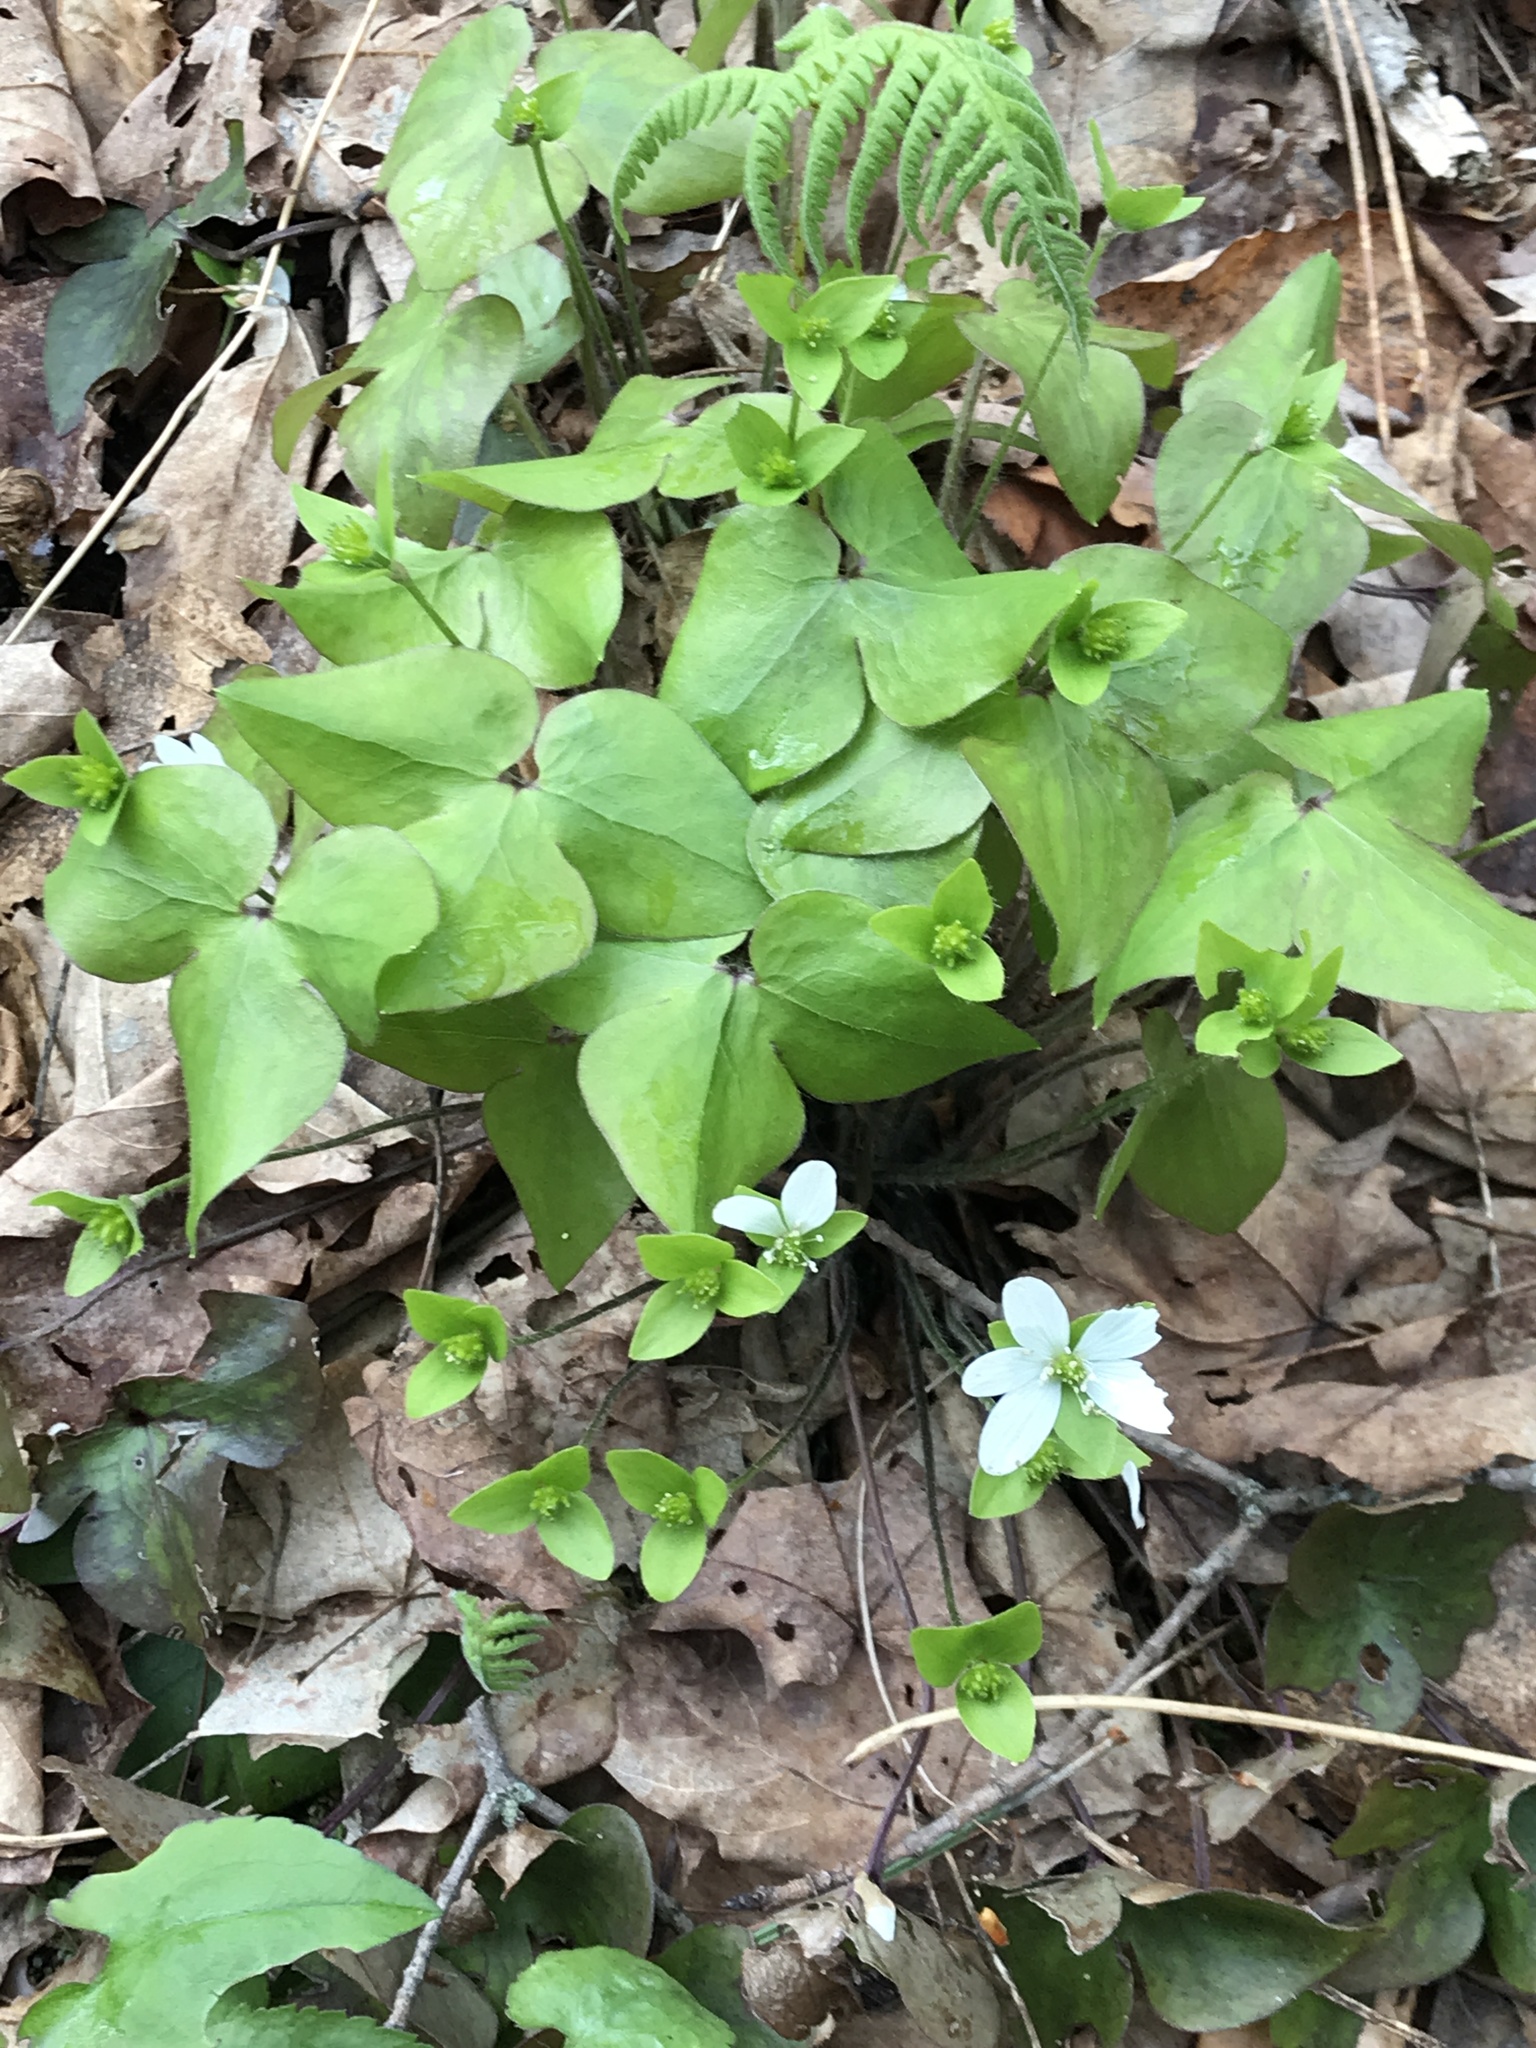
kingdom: Plantae
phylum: Tracheophyta
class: Magnoliopsida
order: Ranunculales
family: Ranunculaceae
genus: Hepatica
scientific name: Hepatica acutiloba
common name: Sharp-lobed hepatica
